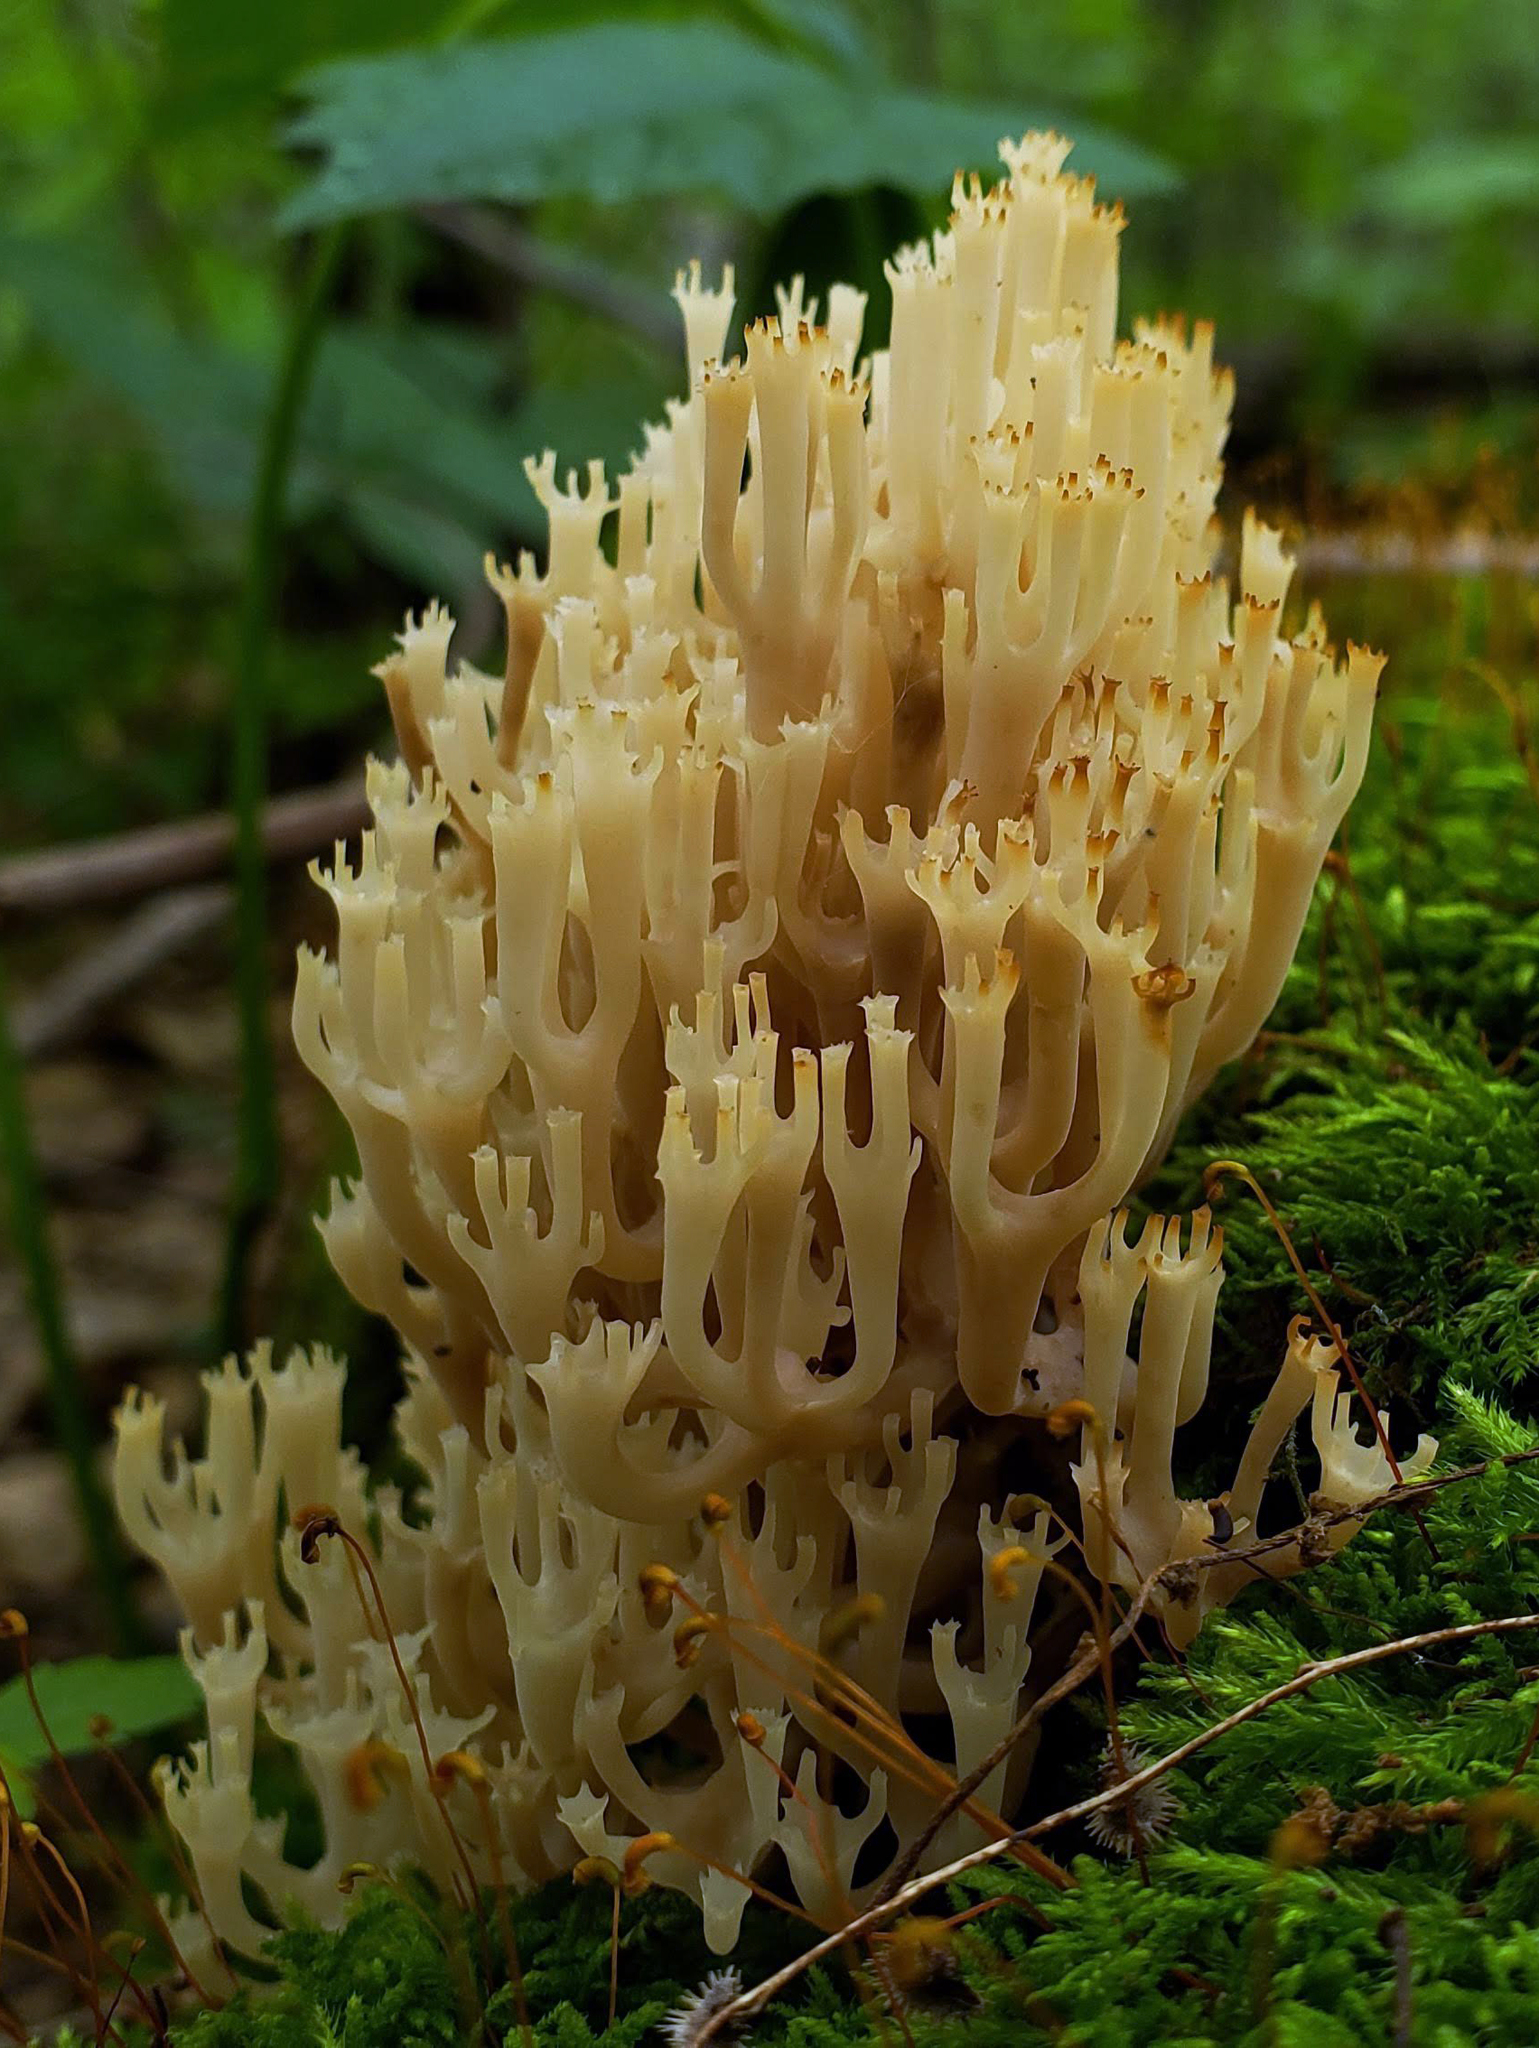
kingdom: Fungi
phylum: Basidiomycota
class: Agaricomycetes
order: Russulales
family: Auriscalpiaceae
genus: Artomyces
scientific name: Artomyces pyxidatus
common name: Crown-tipped coral fungus
